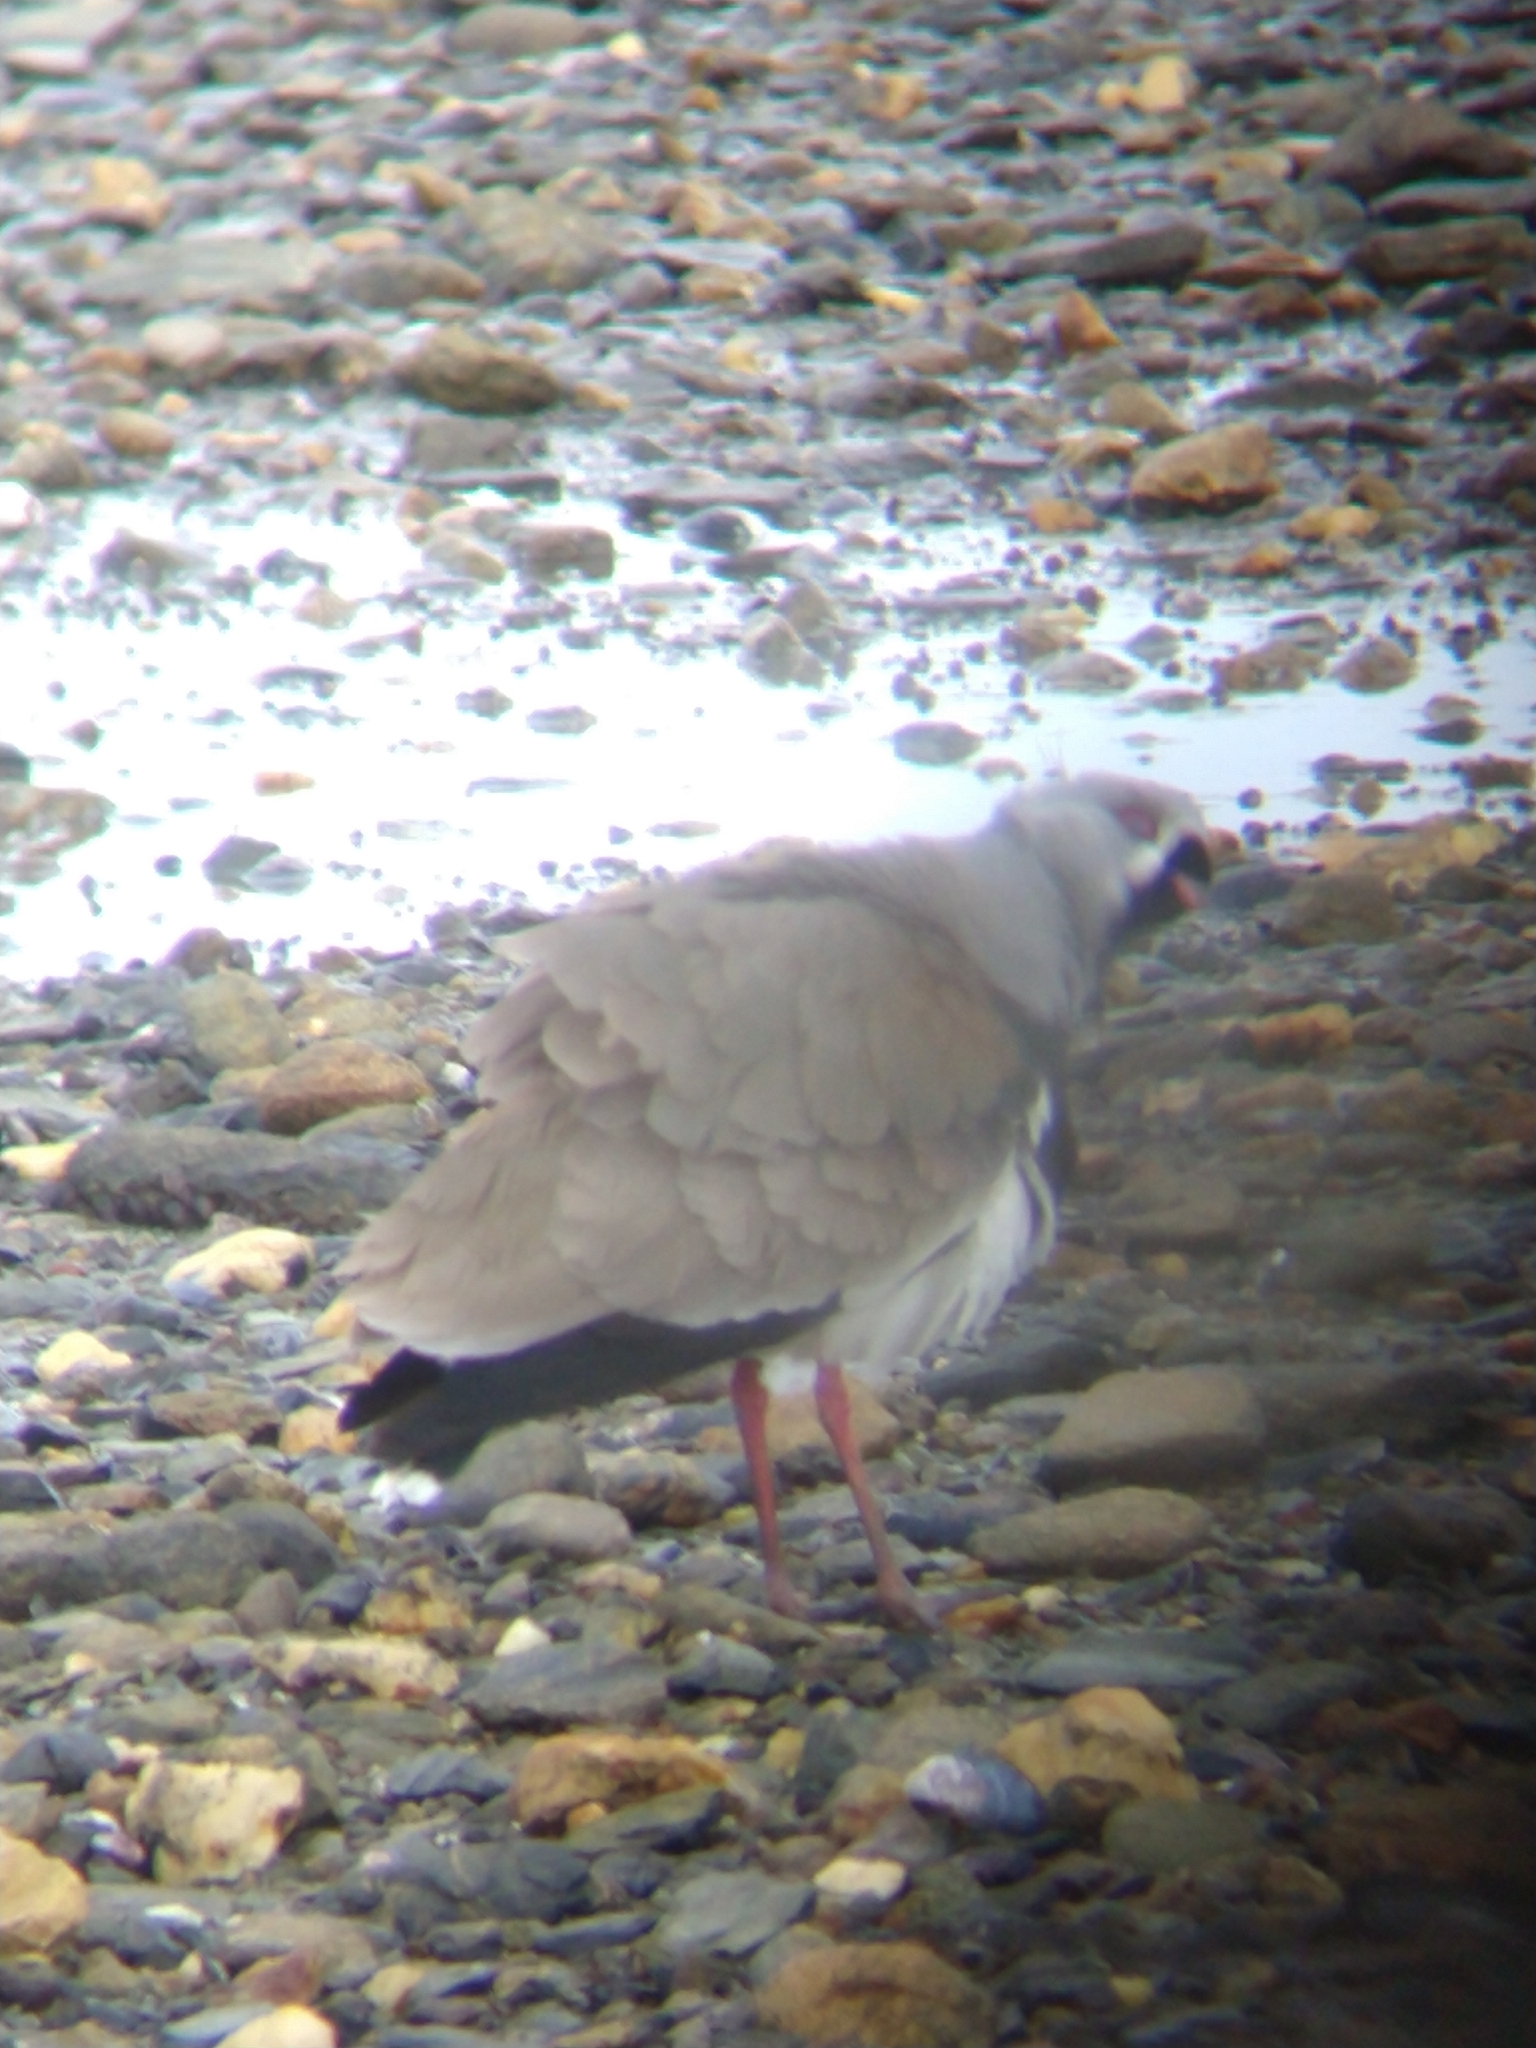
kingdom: Animalia
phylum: Chordata
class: Aves
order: Charadriiformes
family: Charadriidae
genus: Vanellus
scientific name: Vanellus chilensis
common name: Southern lapwing
